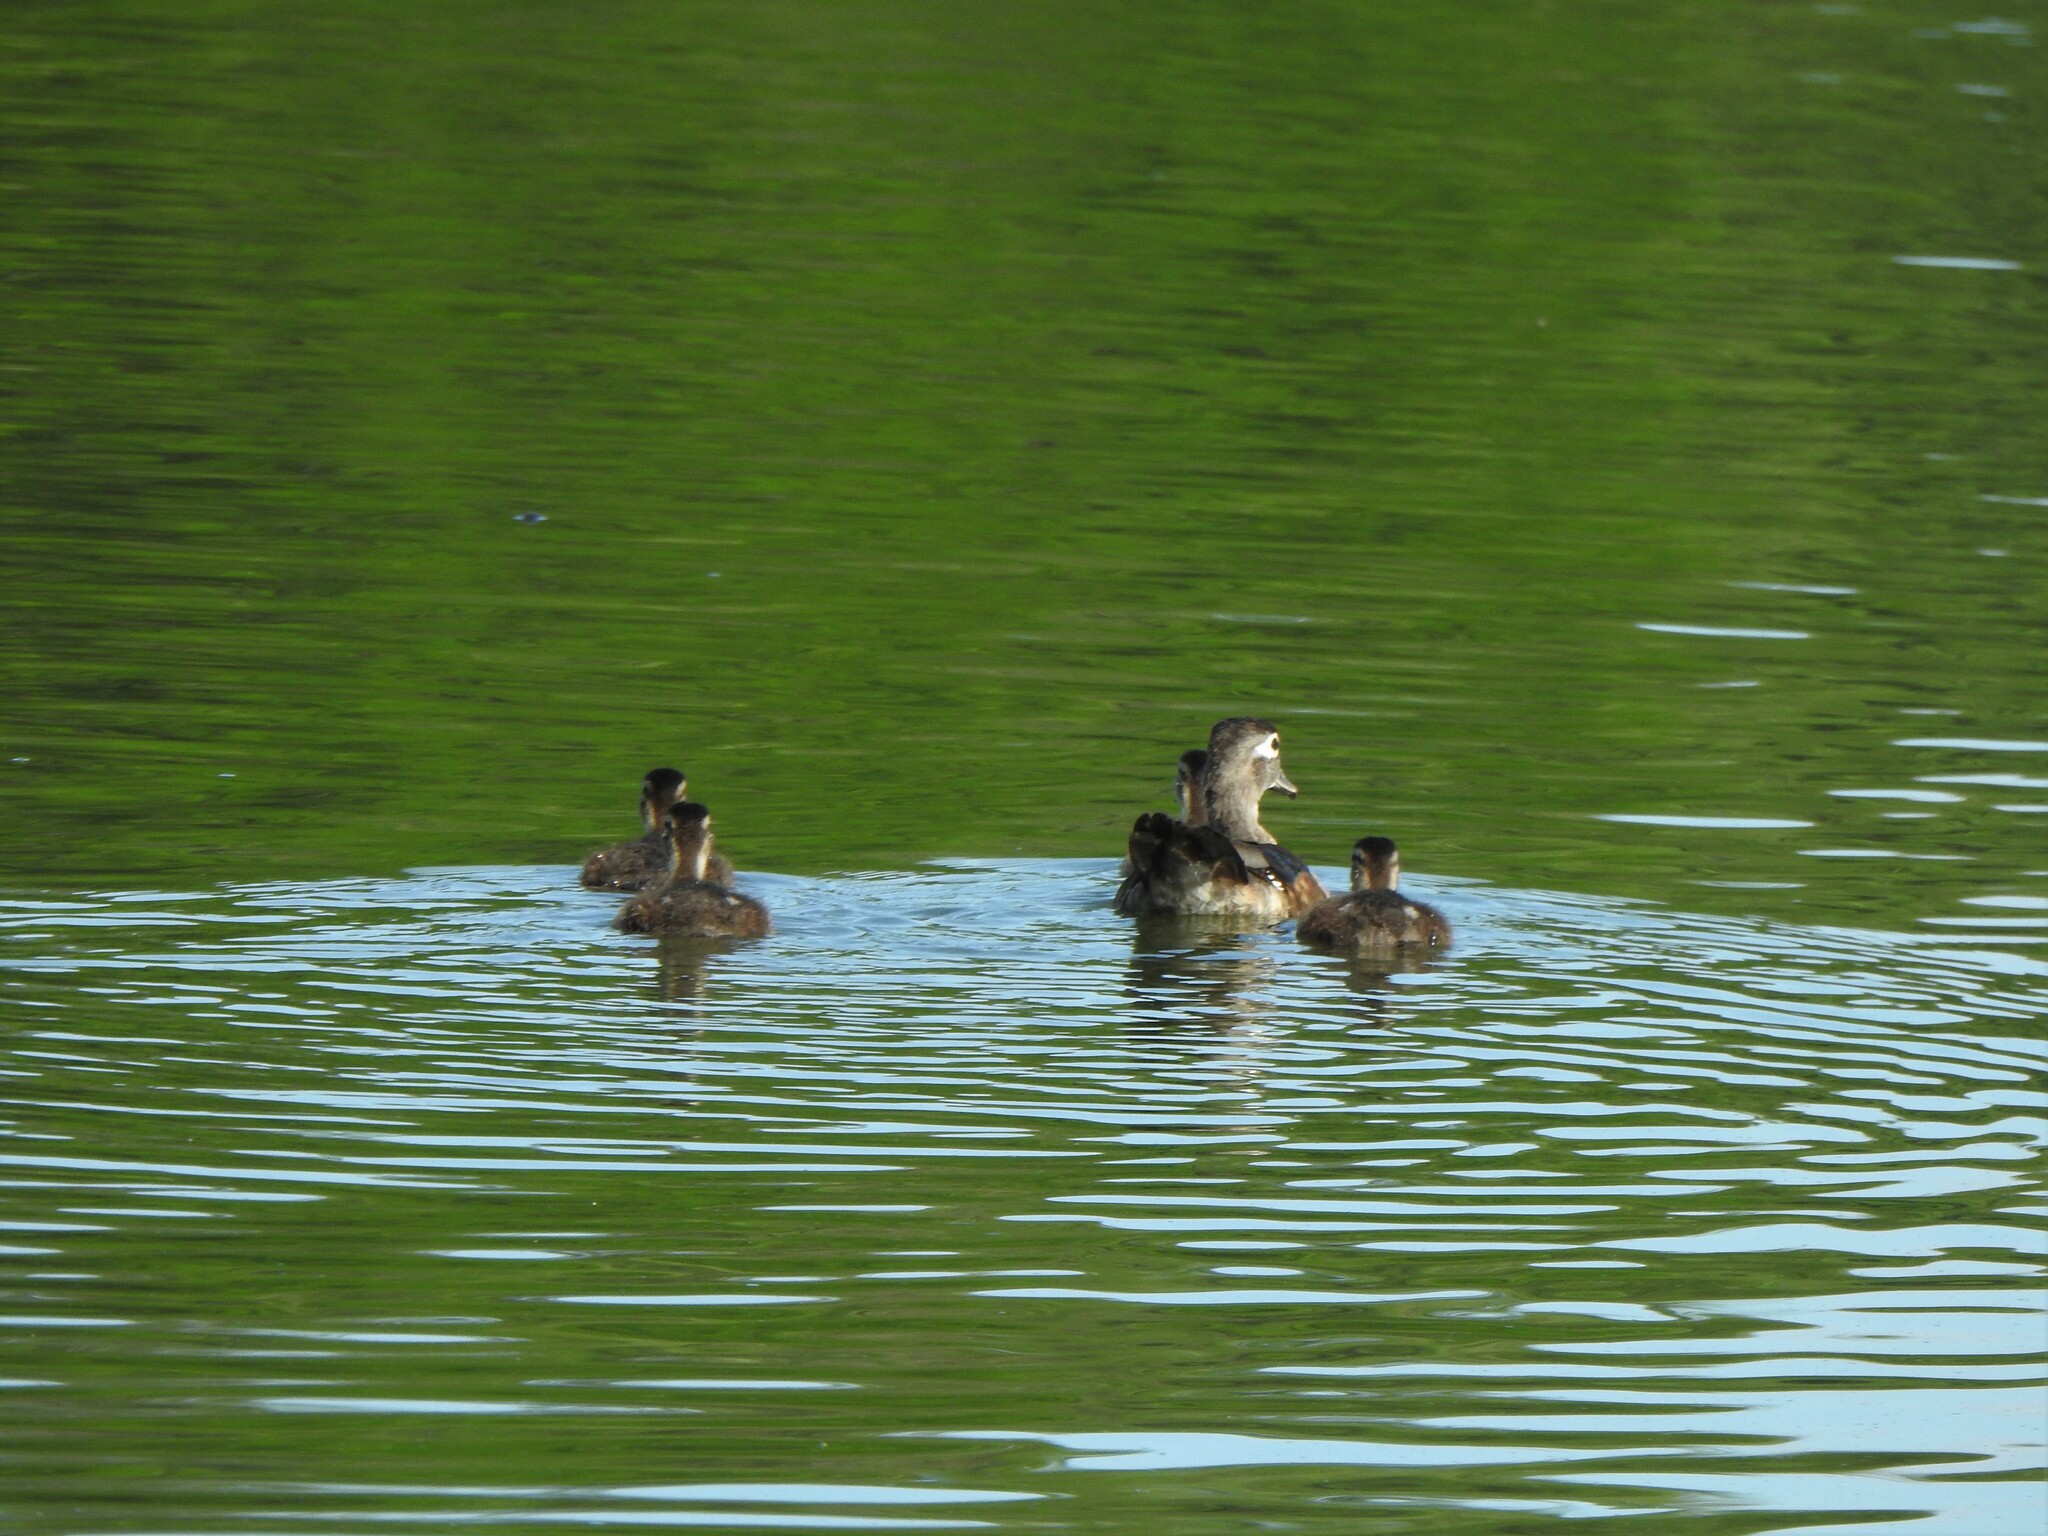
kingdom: Animalia
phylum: Chordata
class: Aves
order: Anseriformes
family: Anatidae
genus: Aix
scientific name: Aix sponsa
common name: Wood duck
